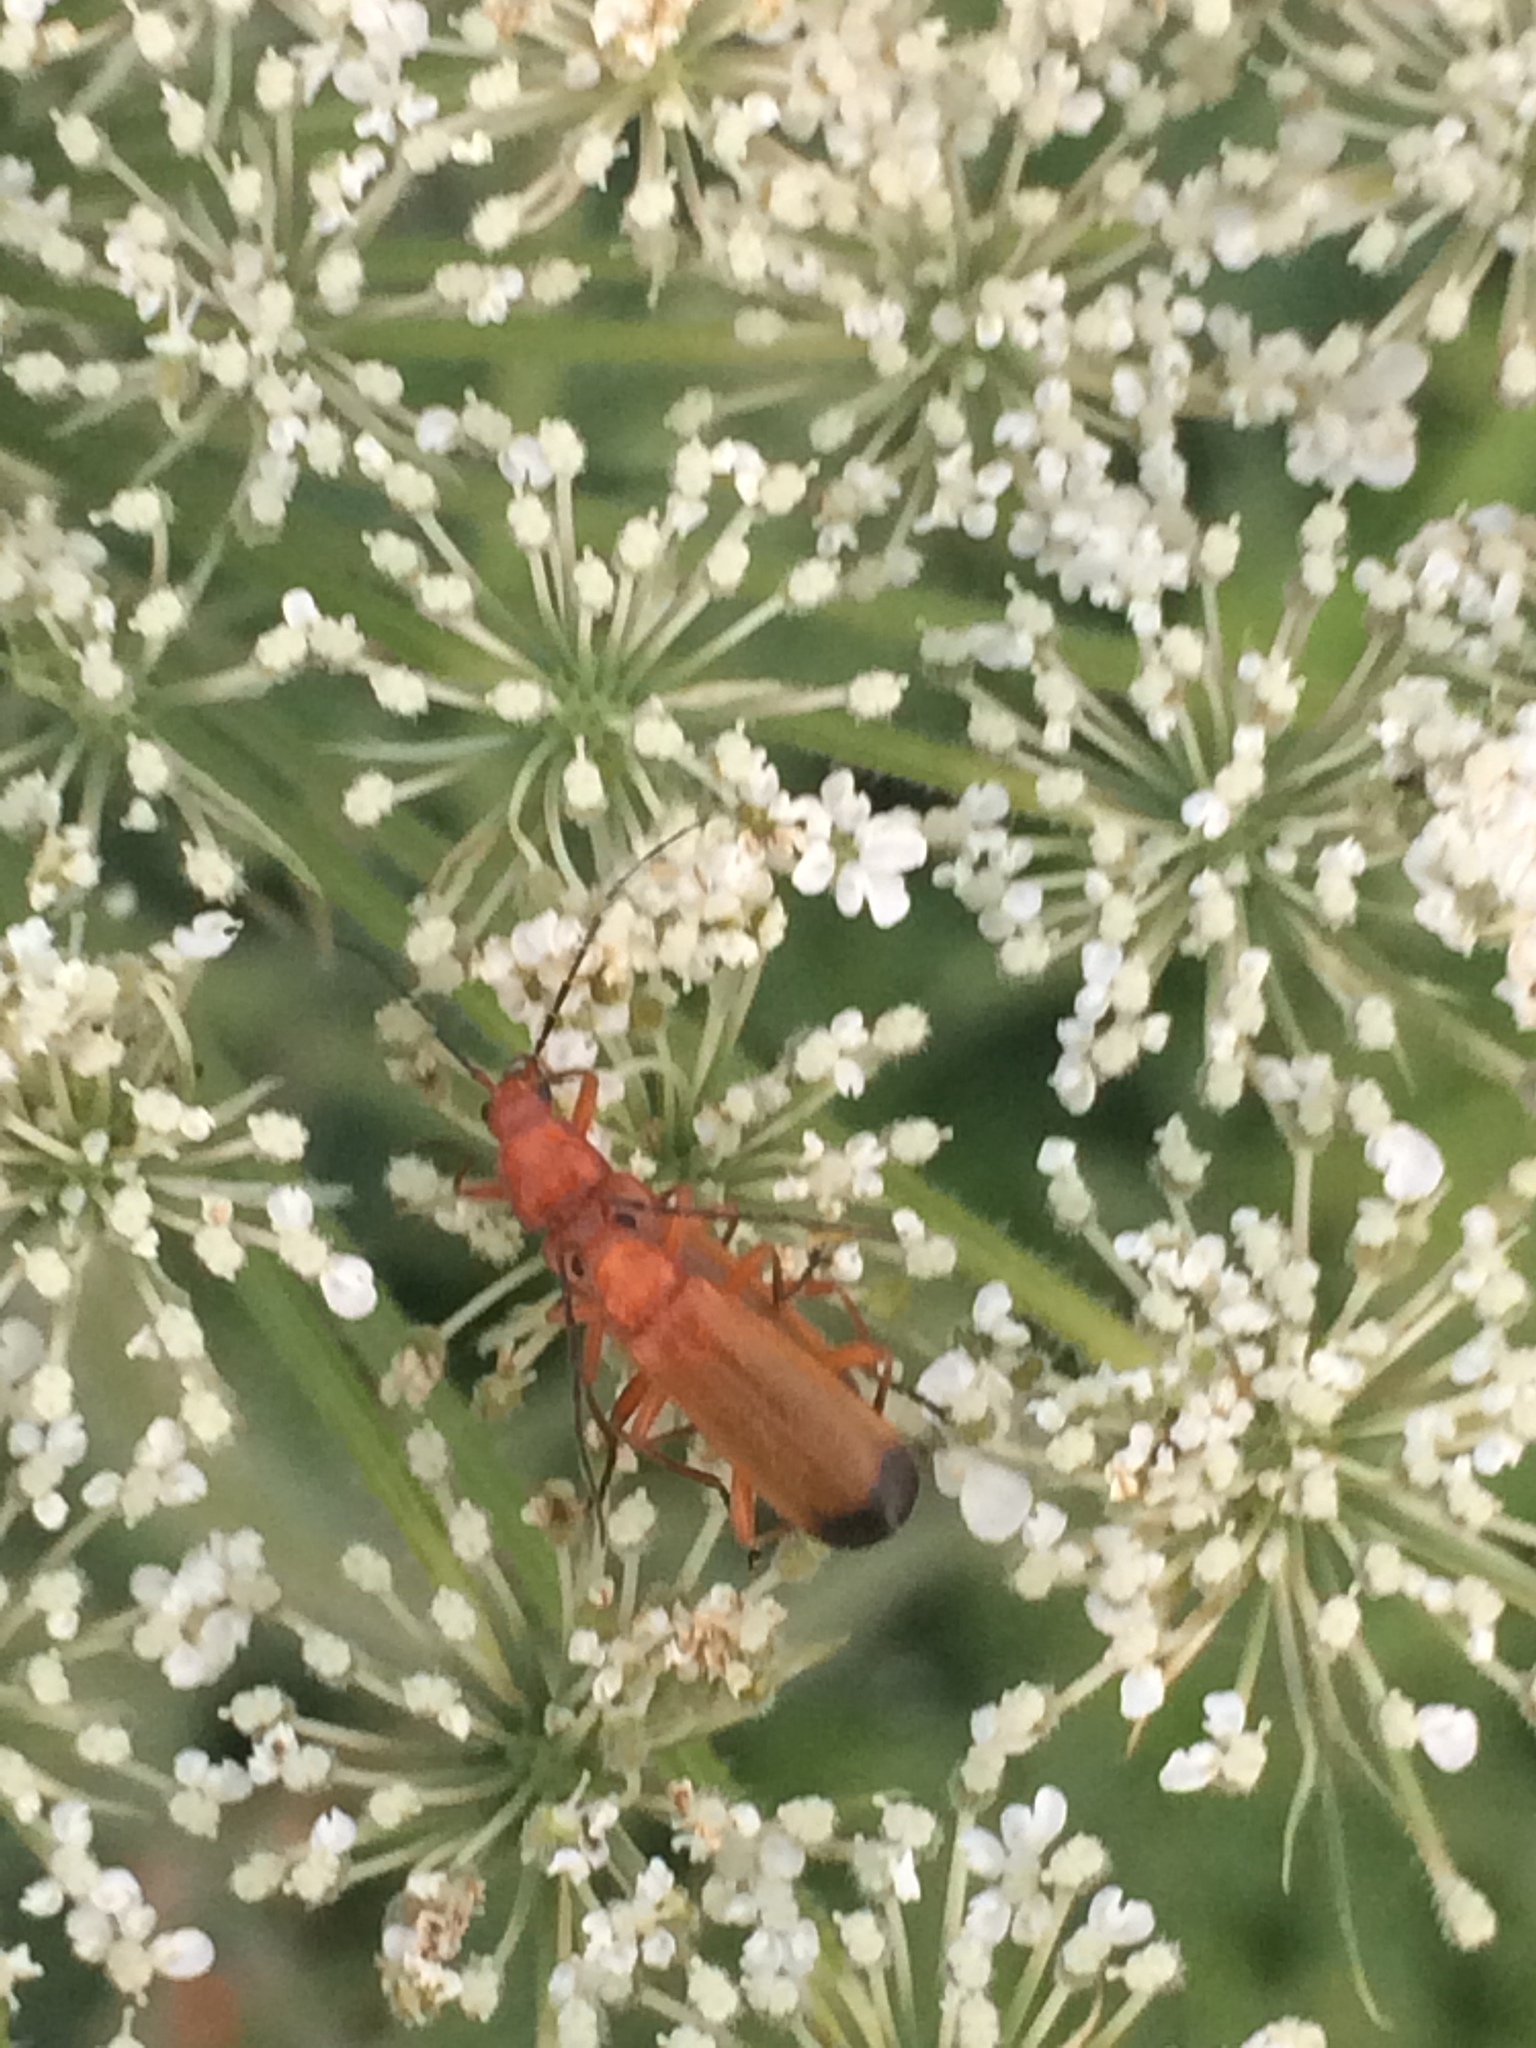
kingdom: Animalia
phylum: Arthropoda
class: Insecta
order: Coleoptera
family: Cantharidae
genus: Rhagonycha
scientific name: Rhagonycha fulva
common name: Common red soldier beetle
